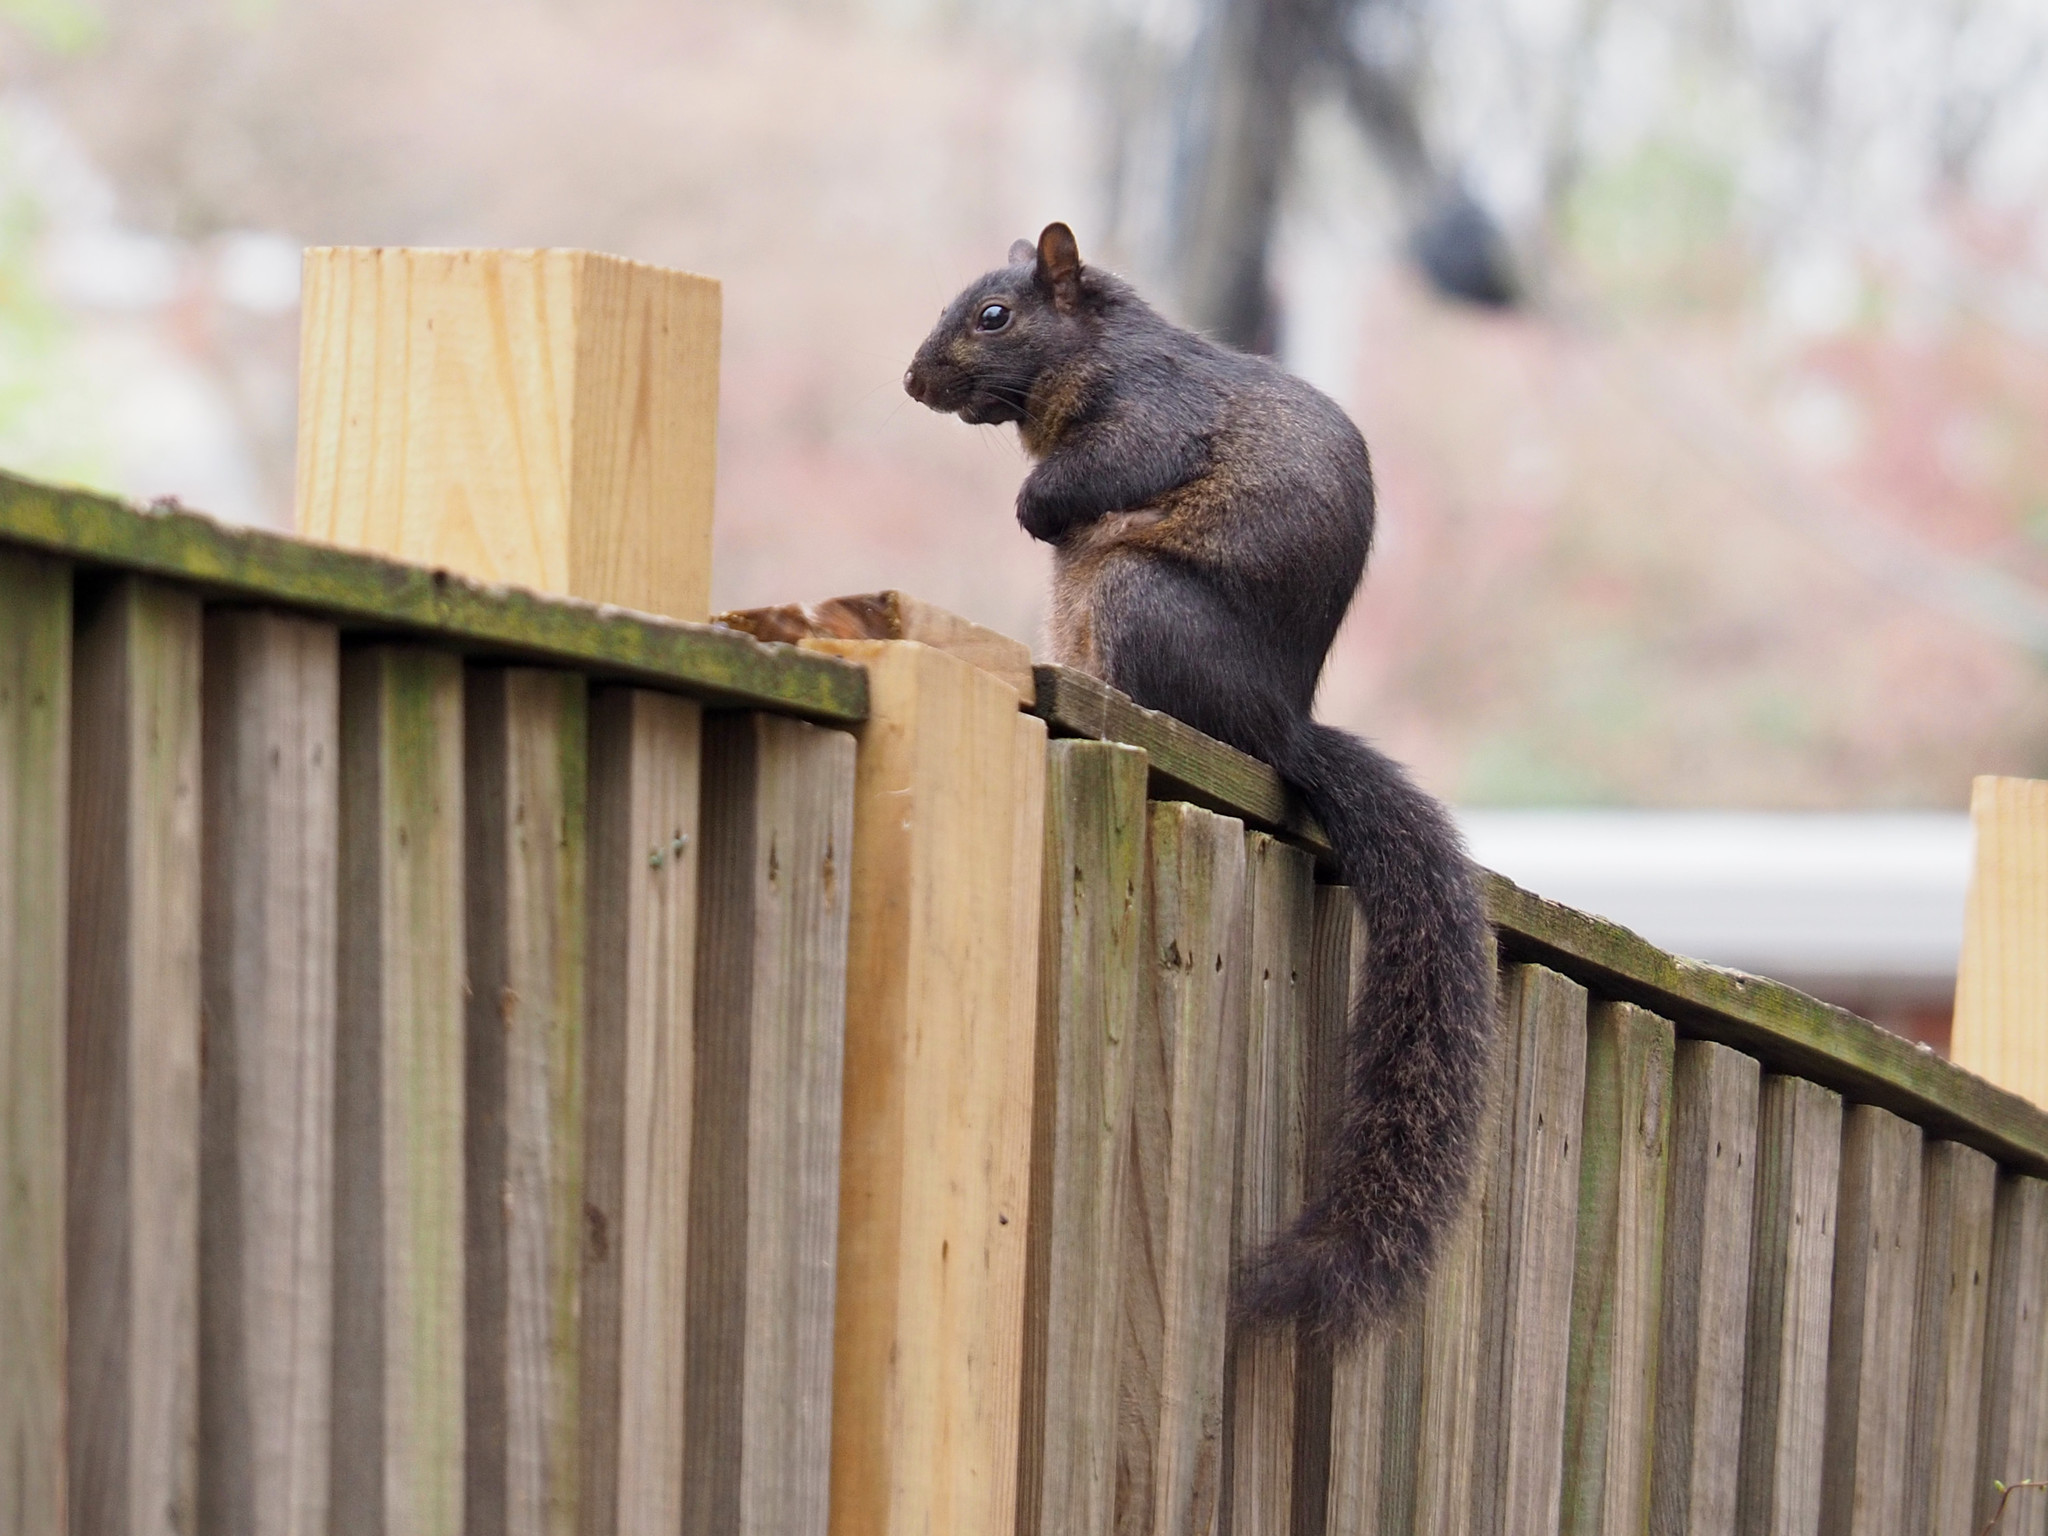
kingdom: Animalia
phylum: Chordata
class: Mammalia
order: Rodentia
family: Sciuridae
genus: Sciurus
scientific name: Sciurus carolinensis
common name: Eastern gray squirrel
